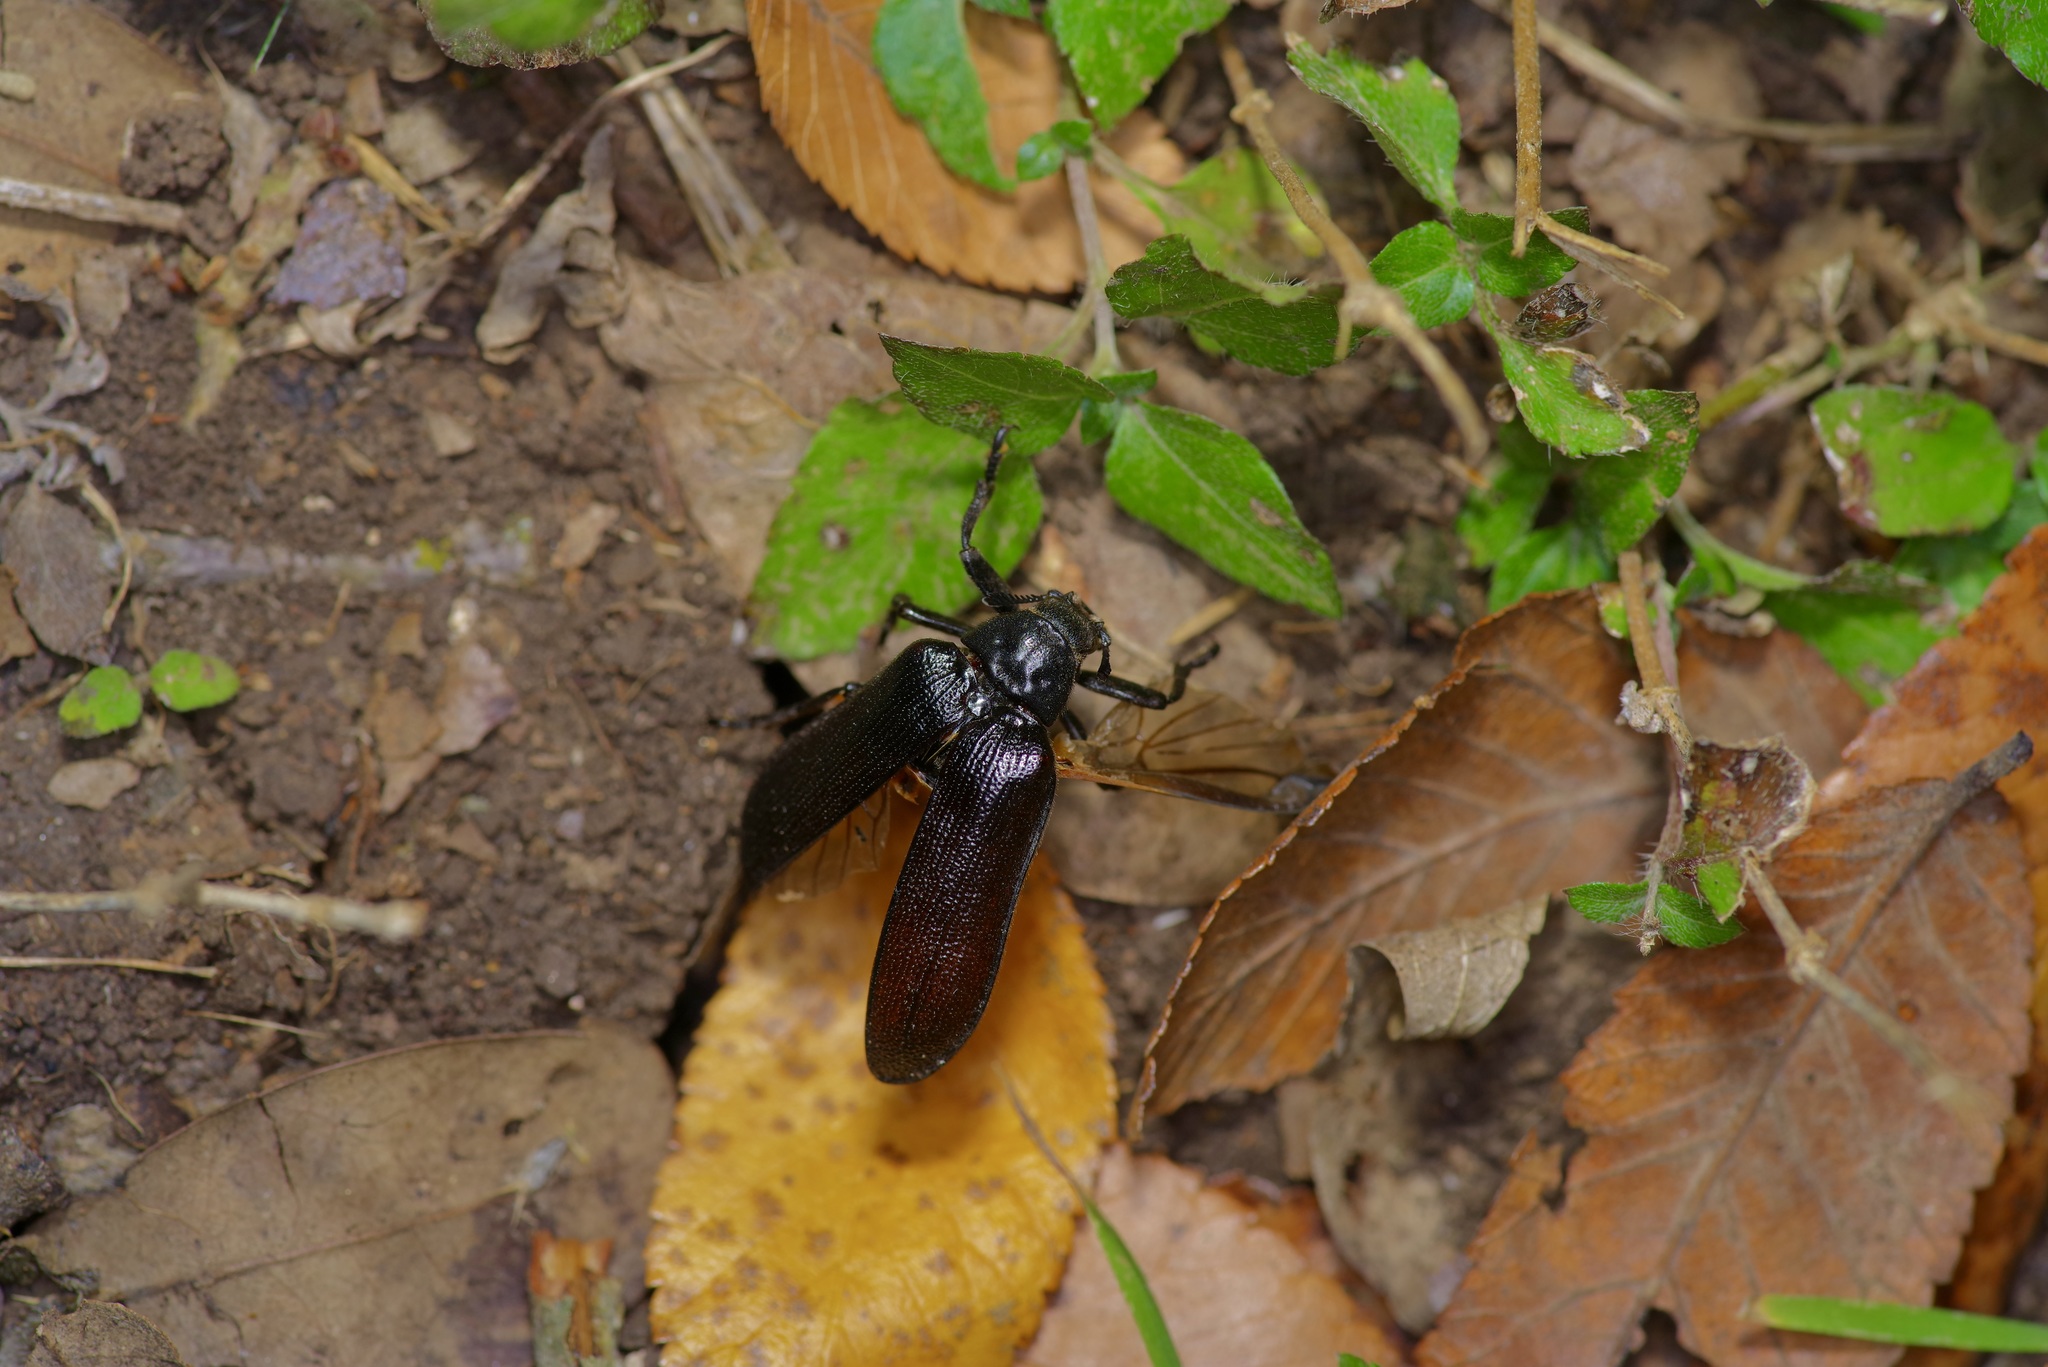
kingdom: Animalia
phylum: Arthropoda
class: Insecta
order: Coleoptera
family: Rhipiceridae
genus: Sandalus
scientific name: Sandalus niger
